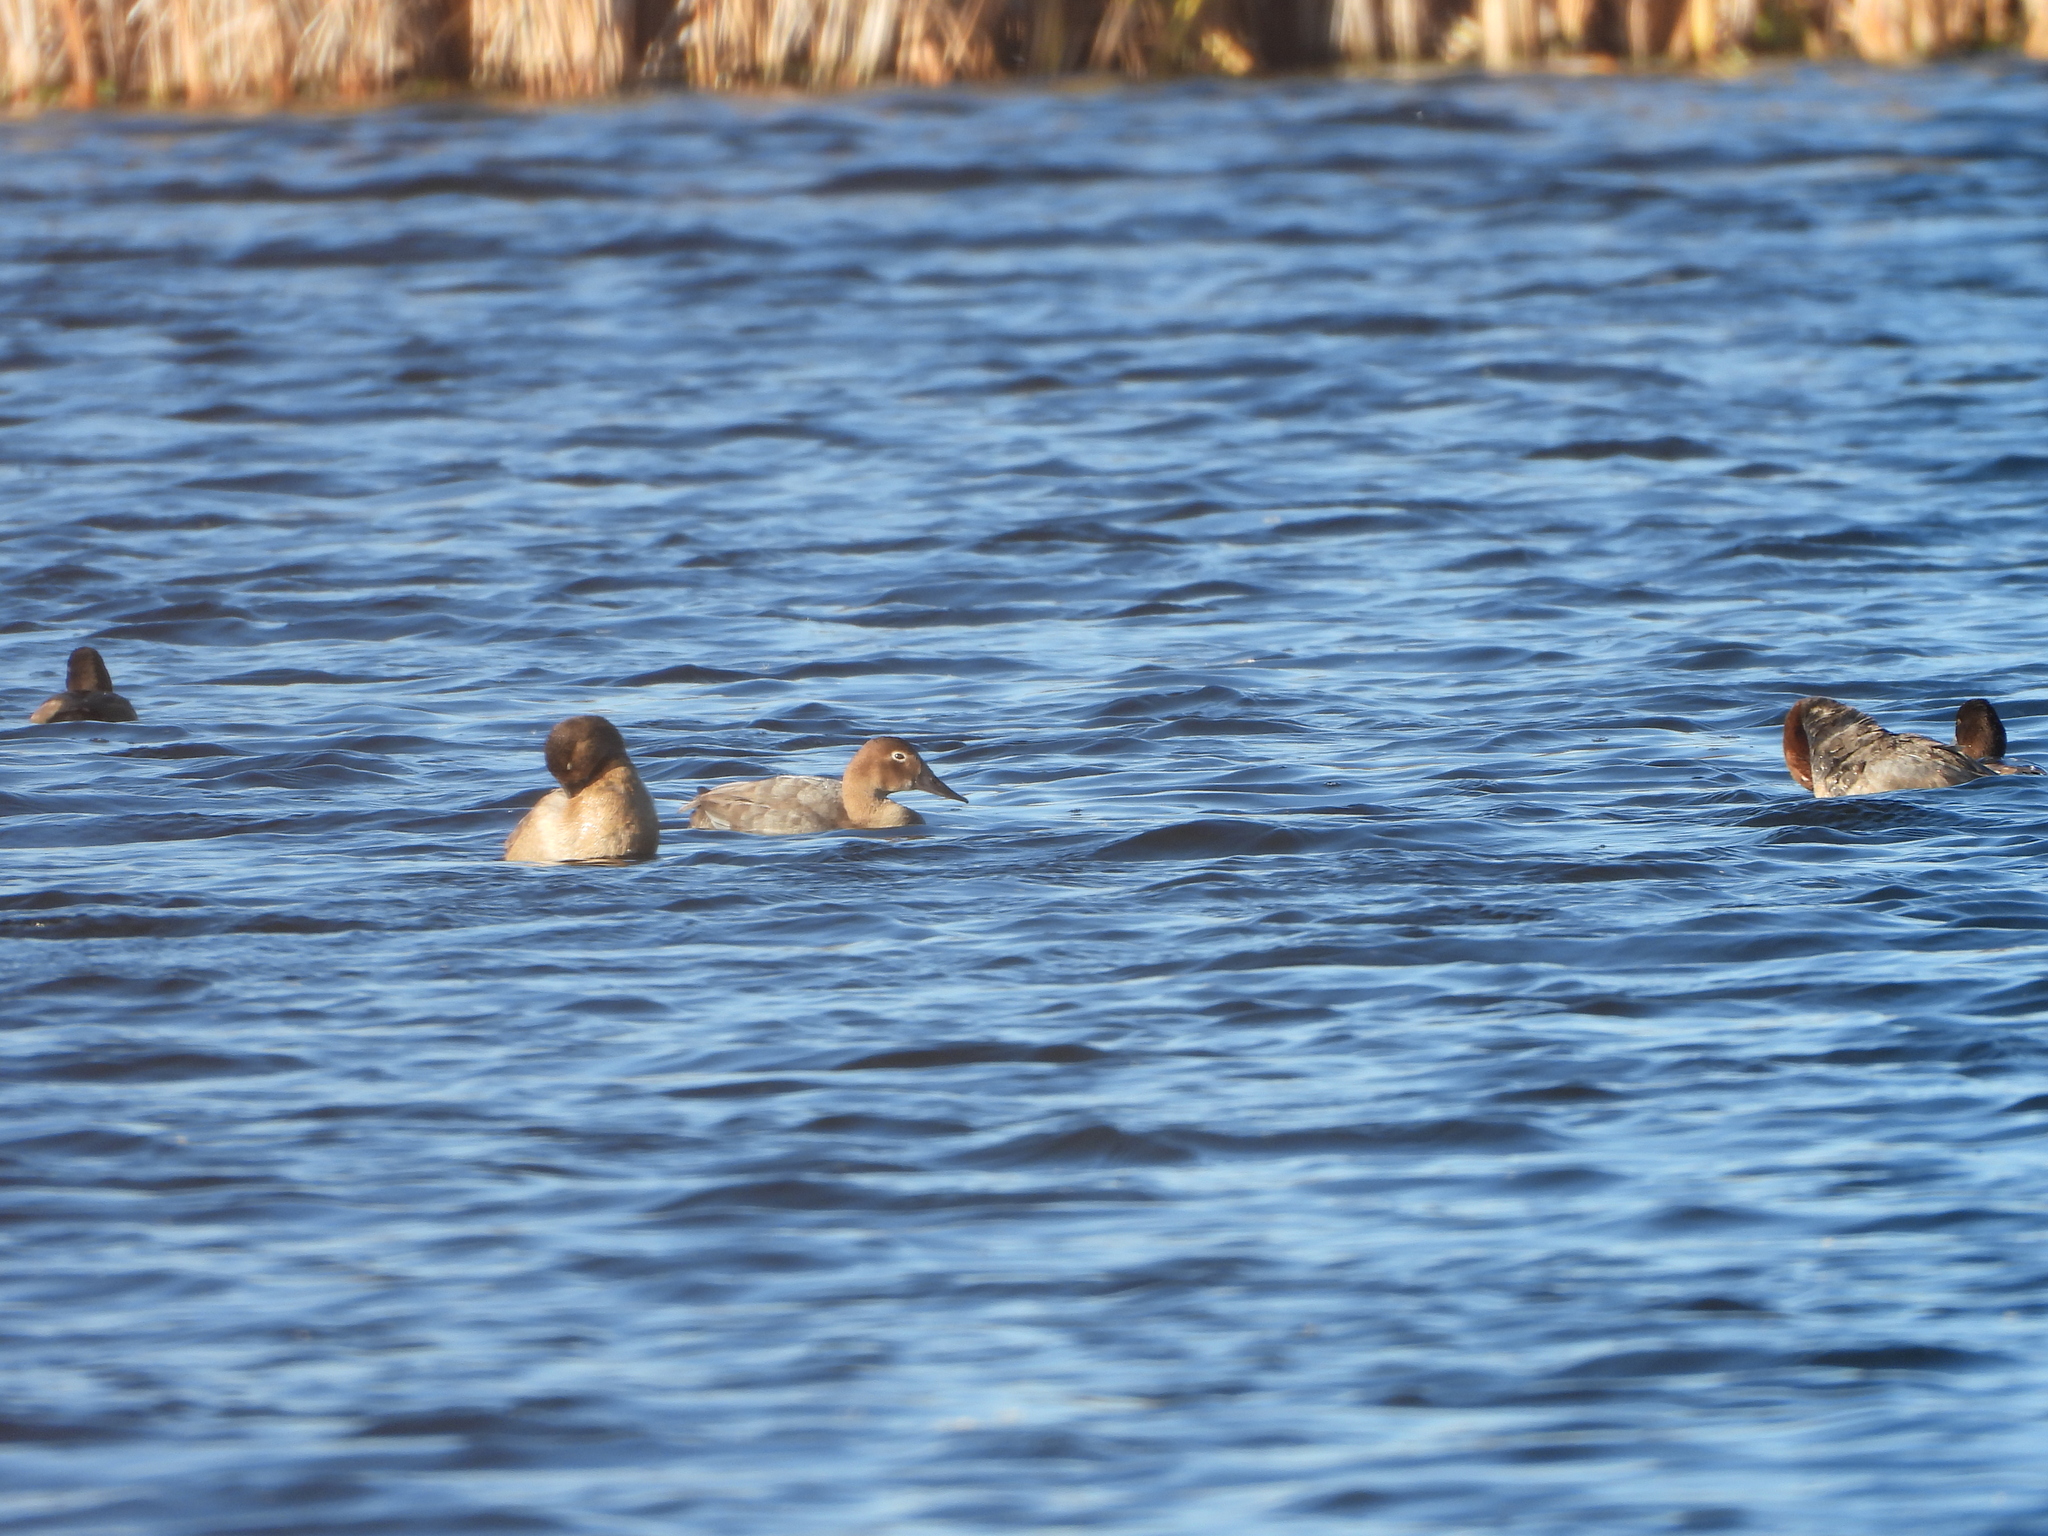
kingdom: Animalia
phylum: Chordata
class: Aves
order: Anseriformes
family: Anatidae
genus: Aythya
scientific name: Aythya valisineria
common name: Canvasback
